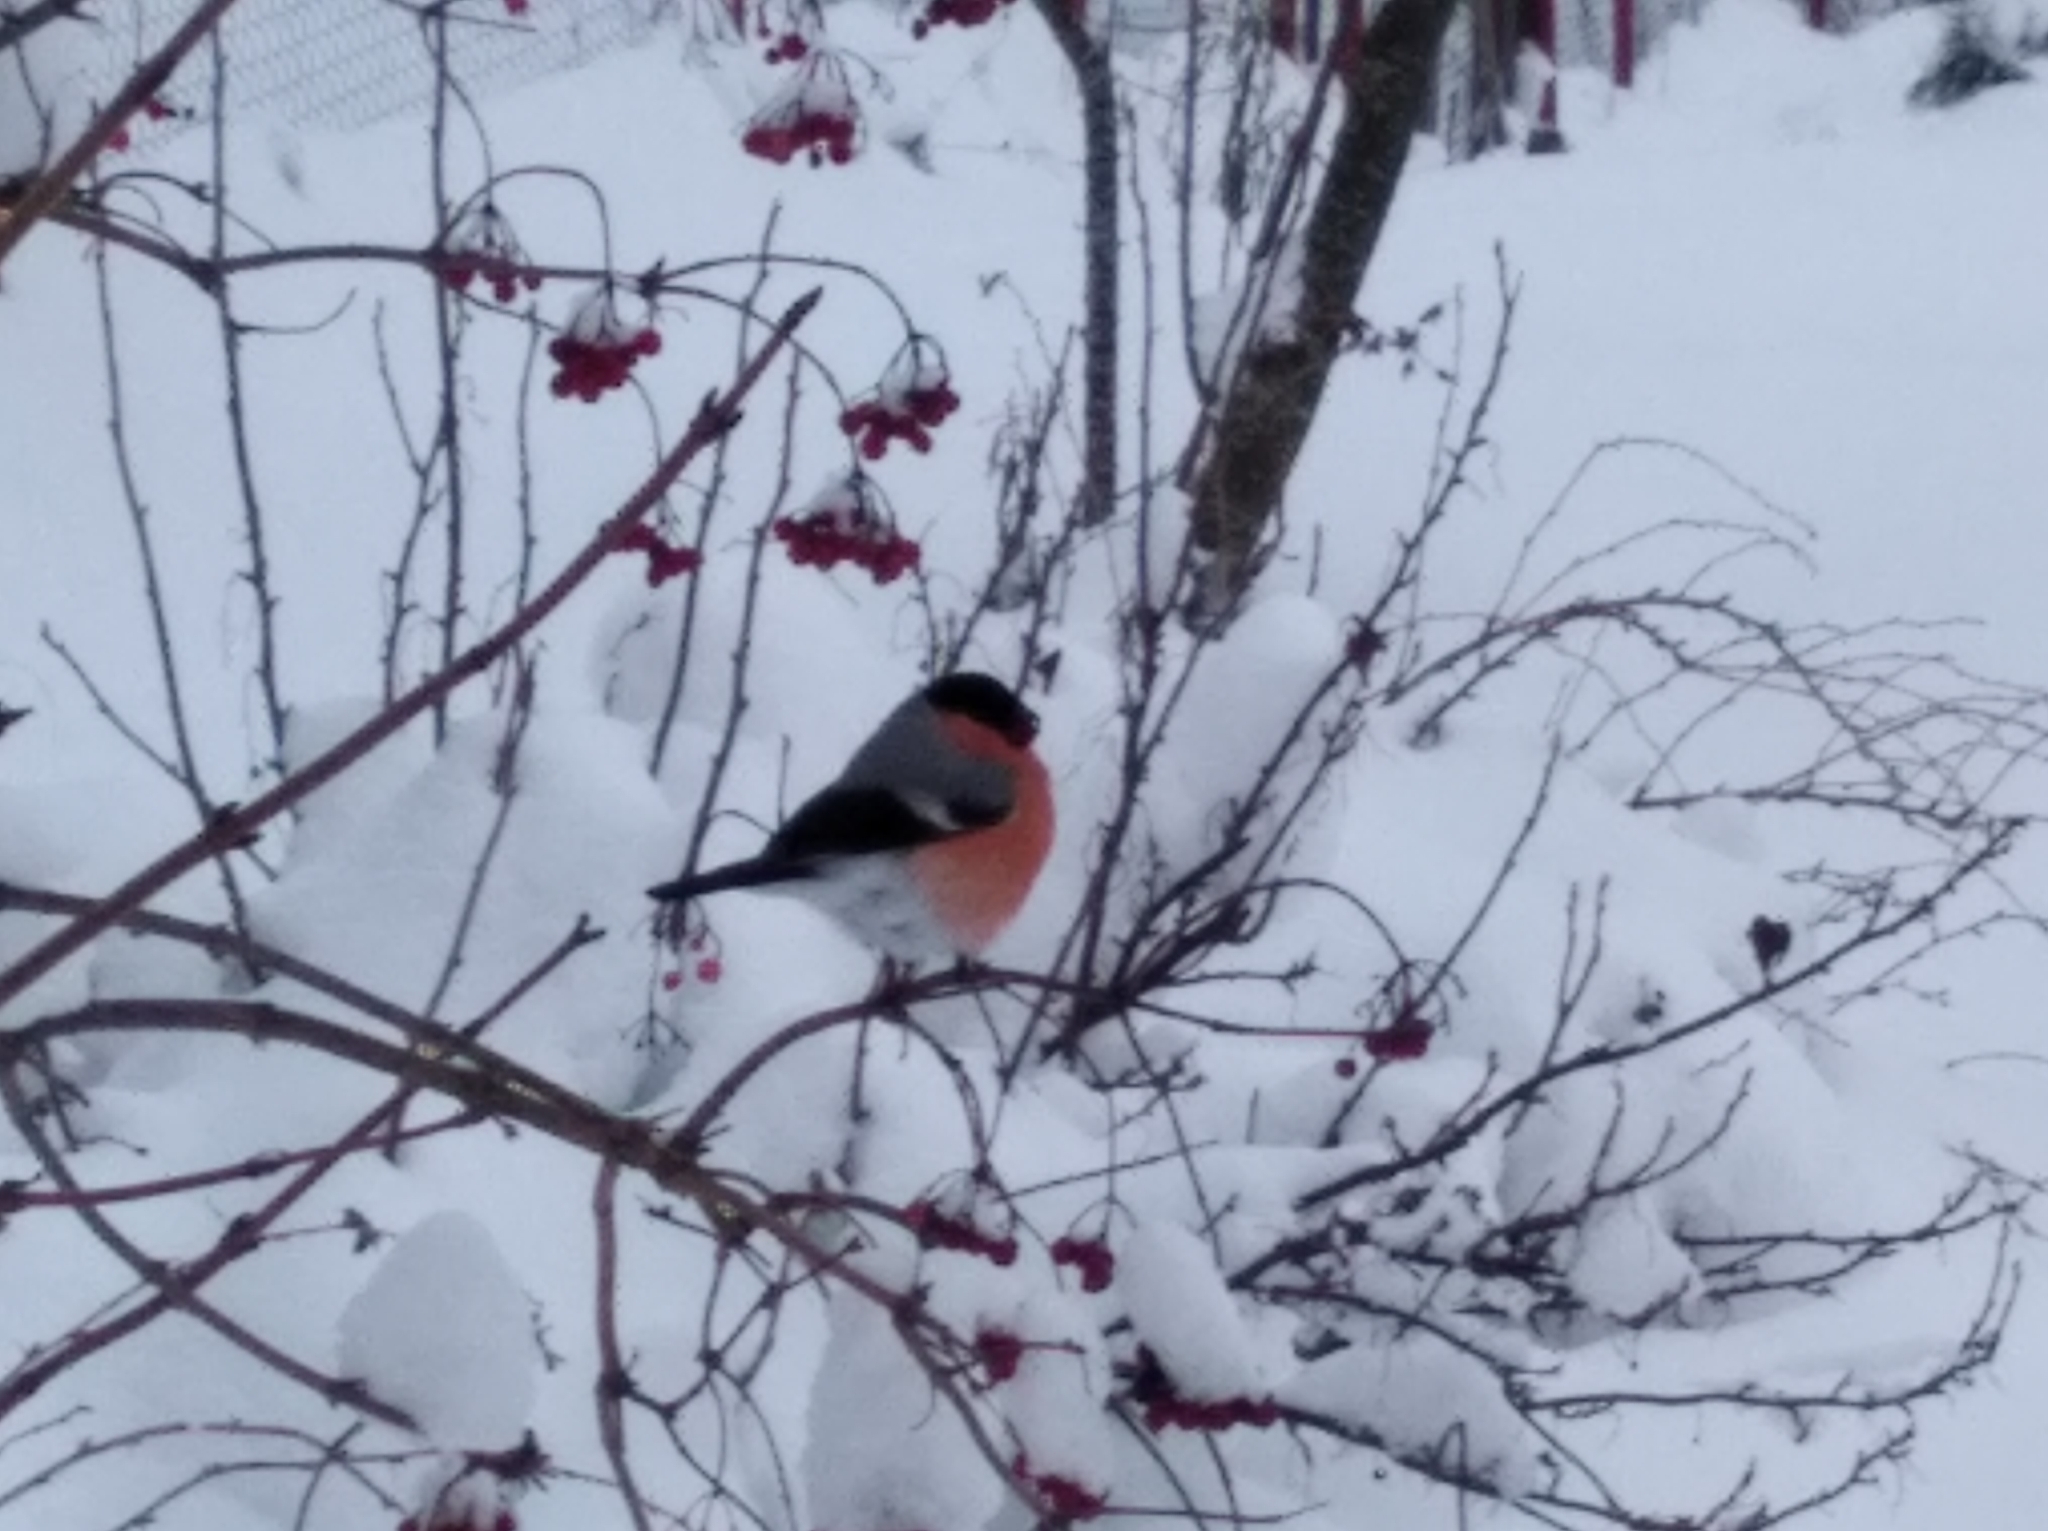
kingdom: Animalia
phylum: Chordata
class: Aves
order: Passeriformes
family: Fringillidae
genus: Pyrrhula
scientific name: Pyrrhula pyrrhula
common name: Eurasian bullfinch
